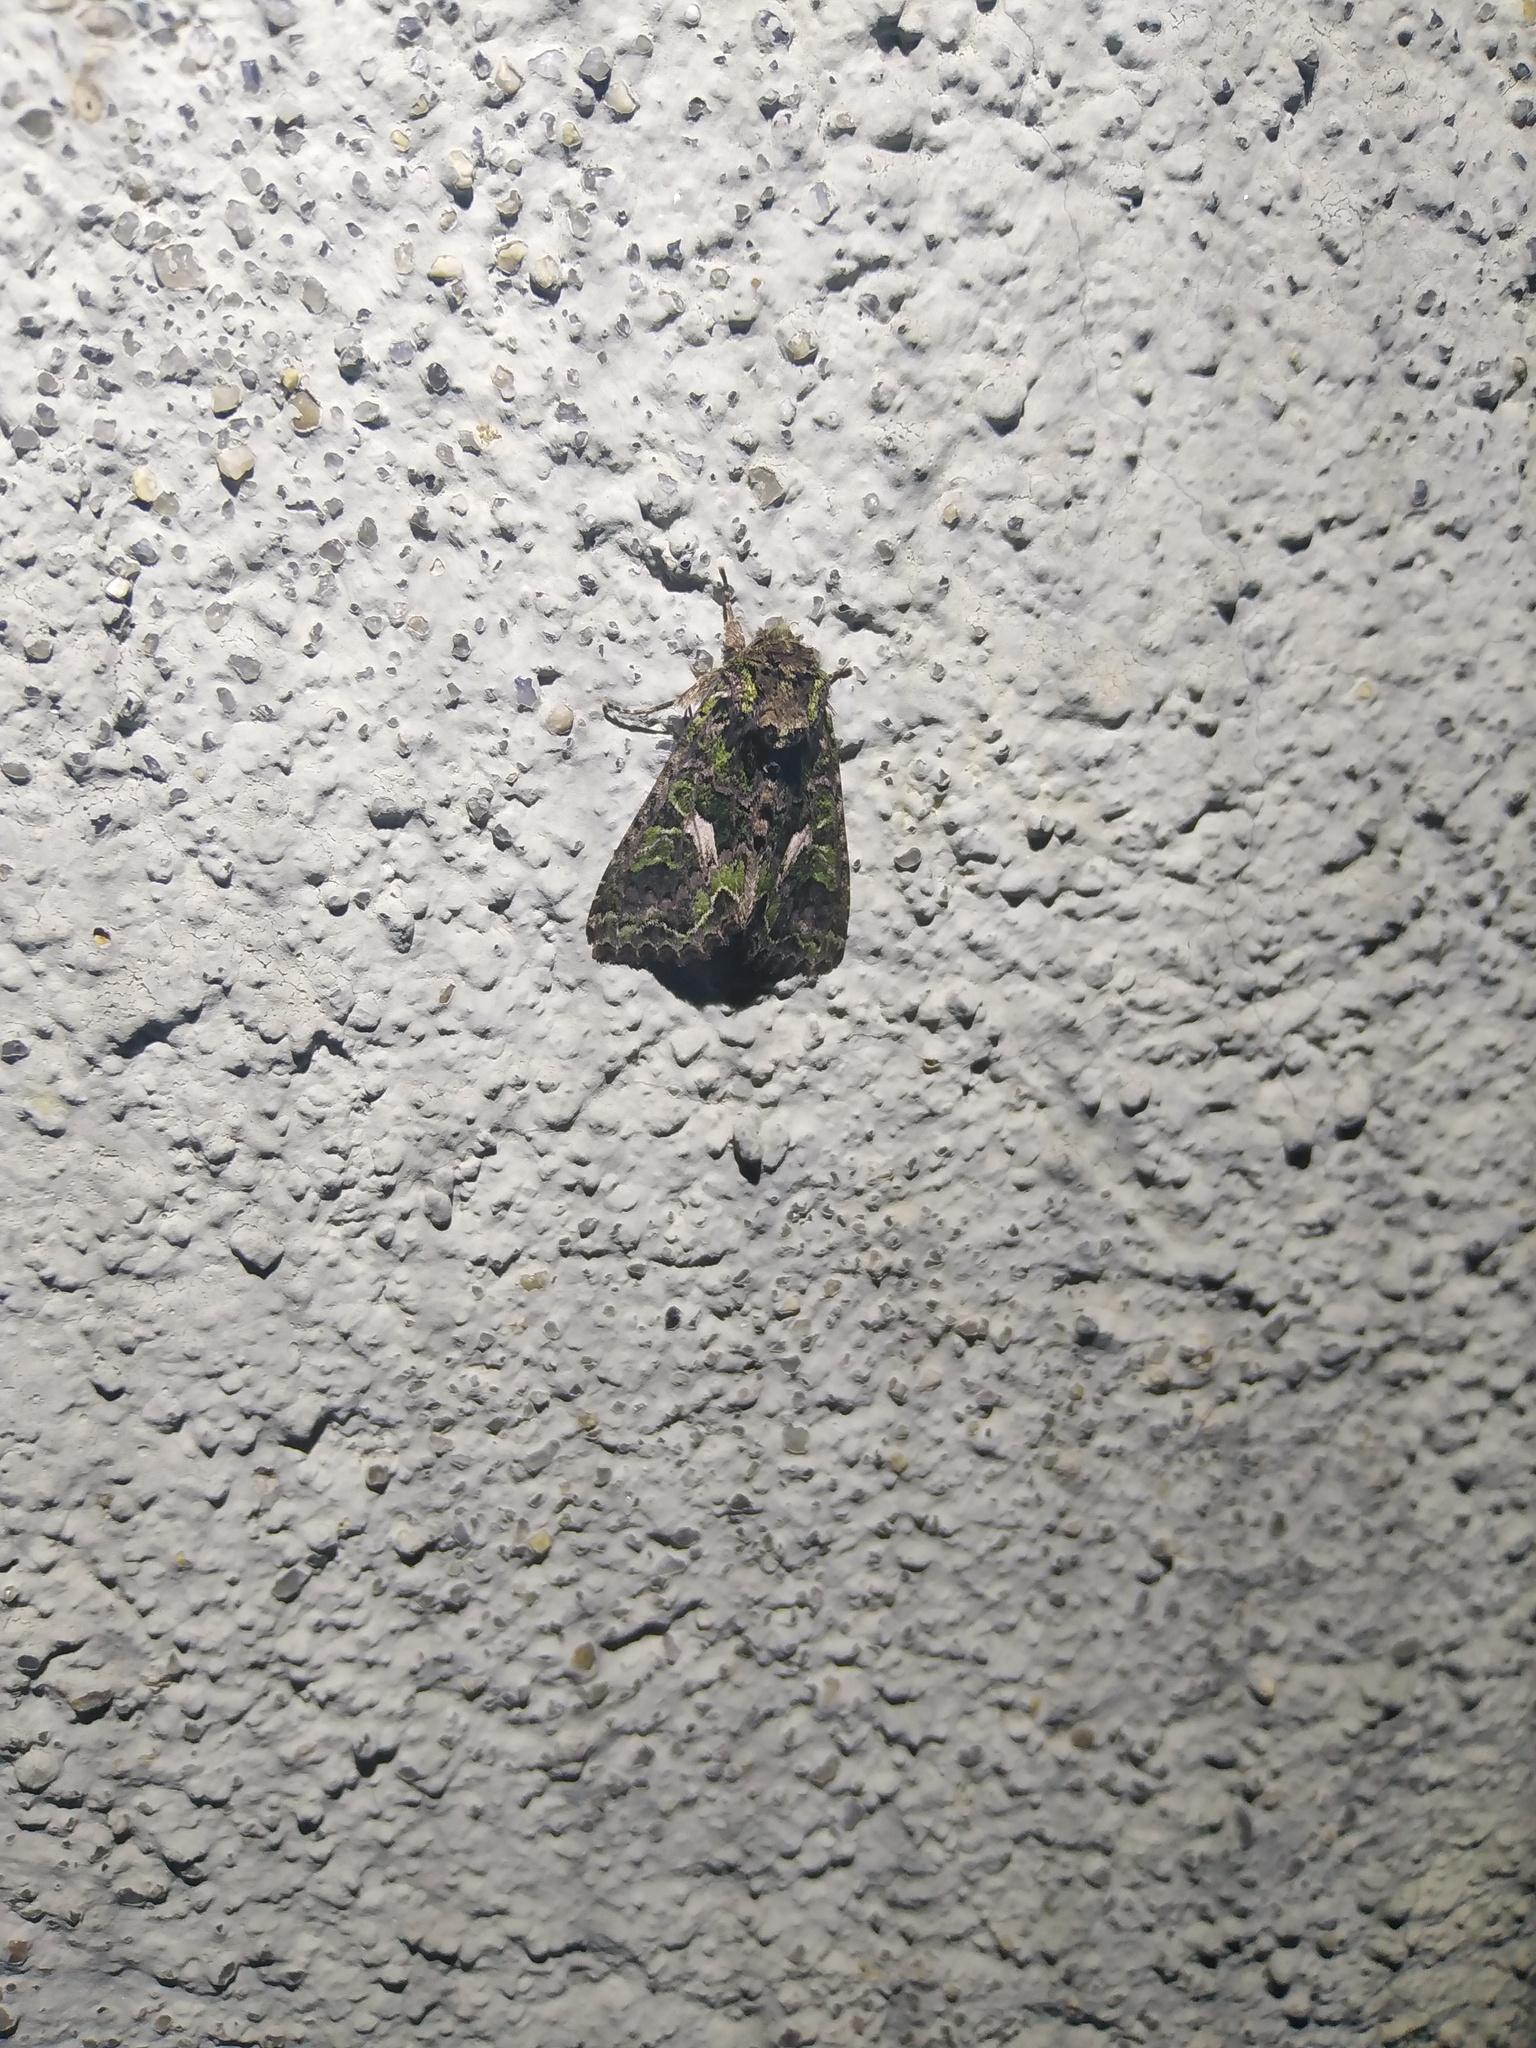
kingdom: Animalia
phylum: Arthropoda
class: Insecta
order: Lepidoptera
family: Noctuidae
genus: Trachea
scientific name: Trachea atriplicis
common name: Orache moth
